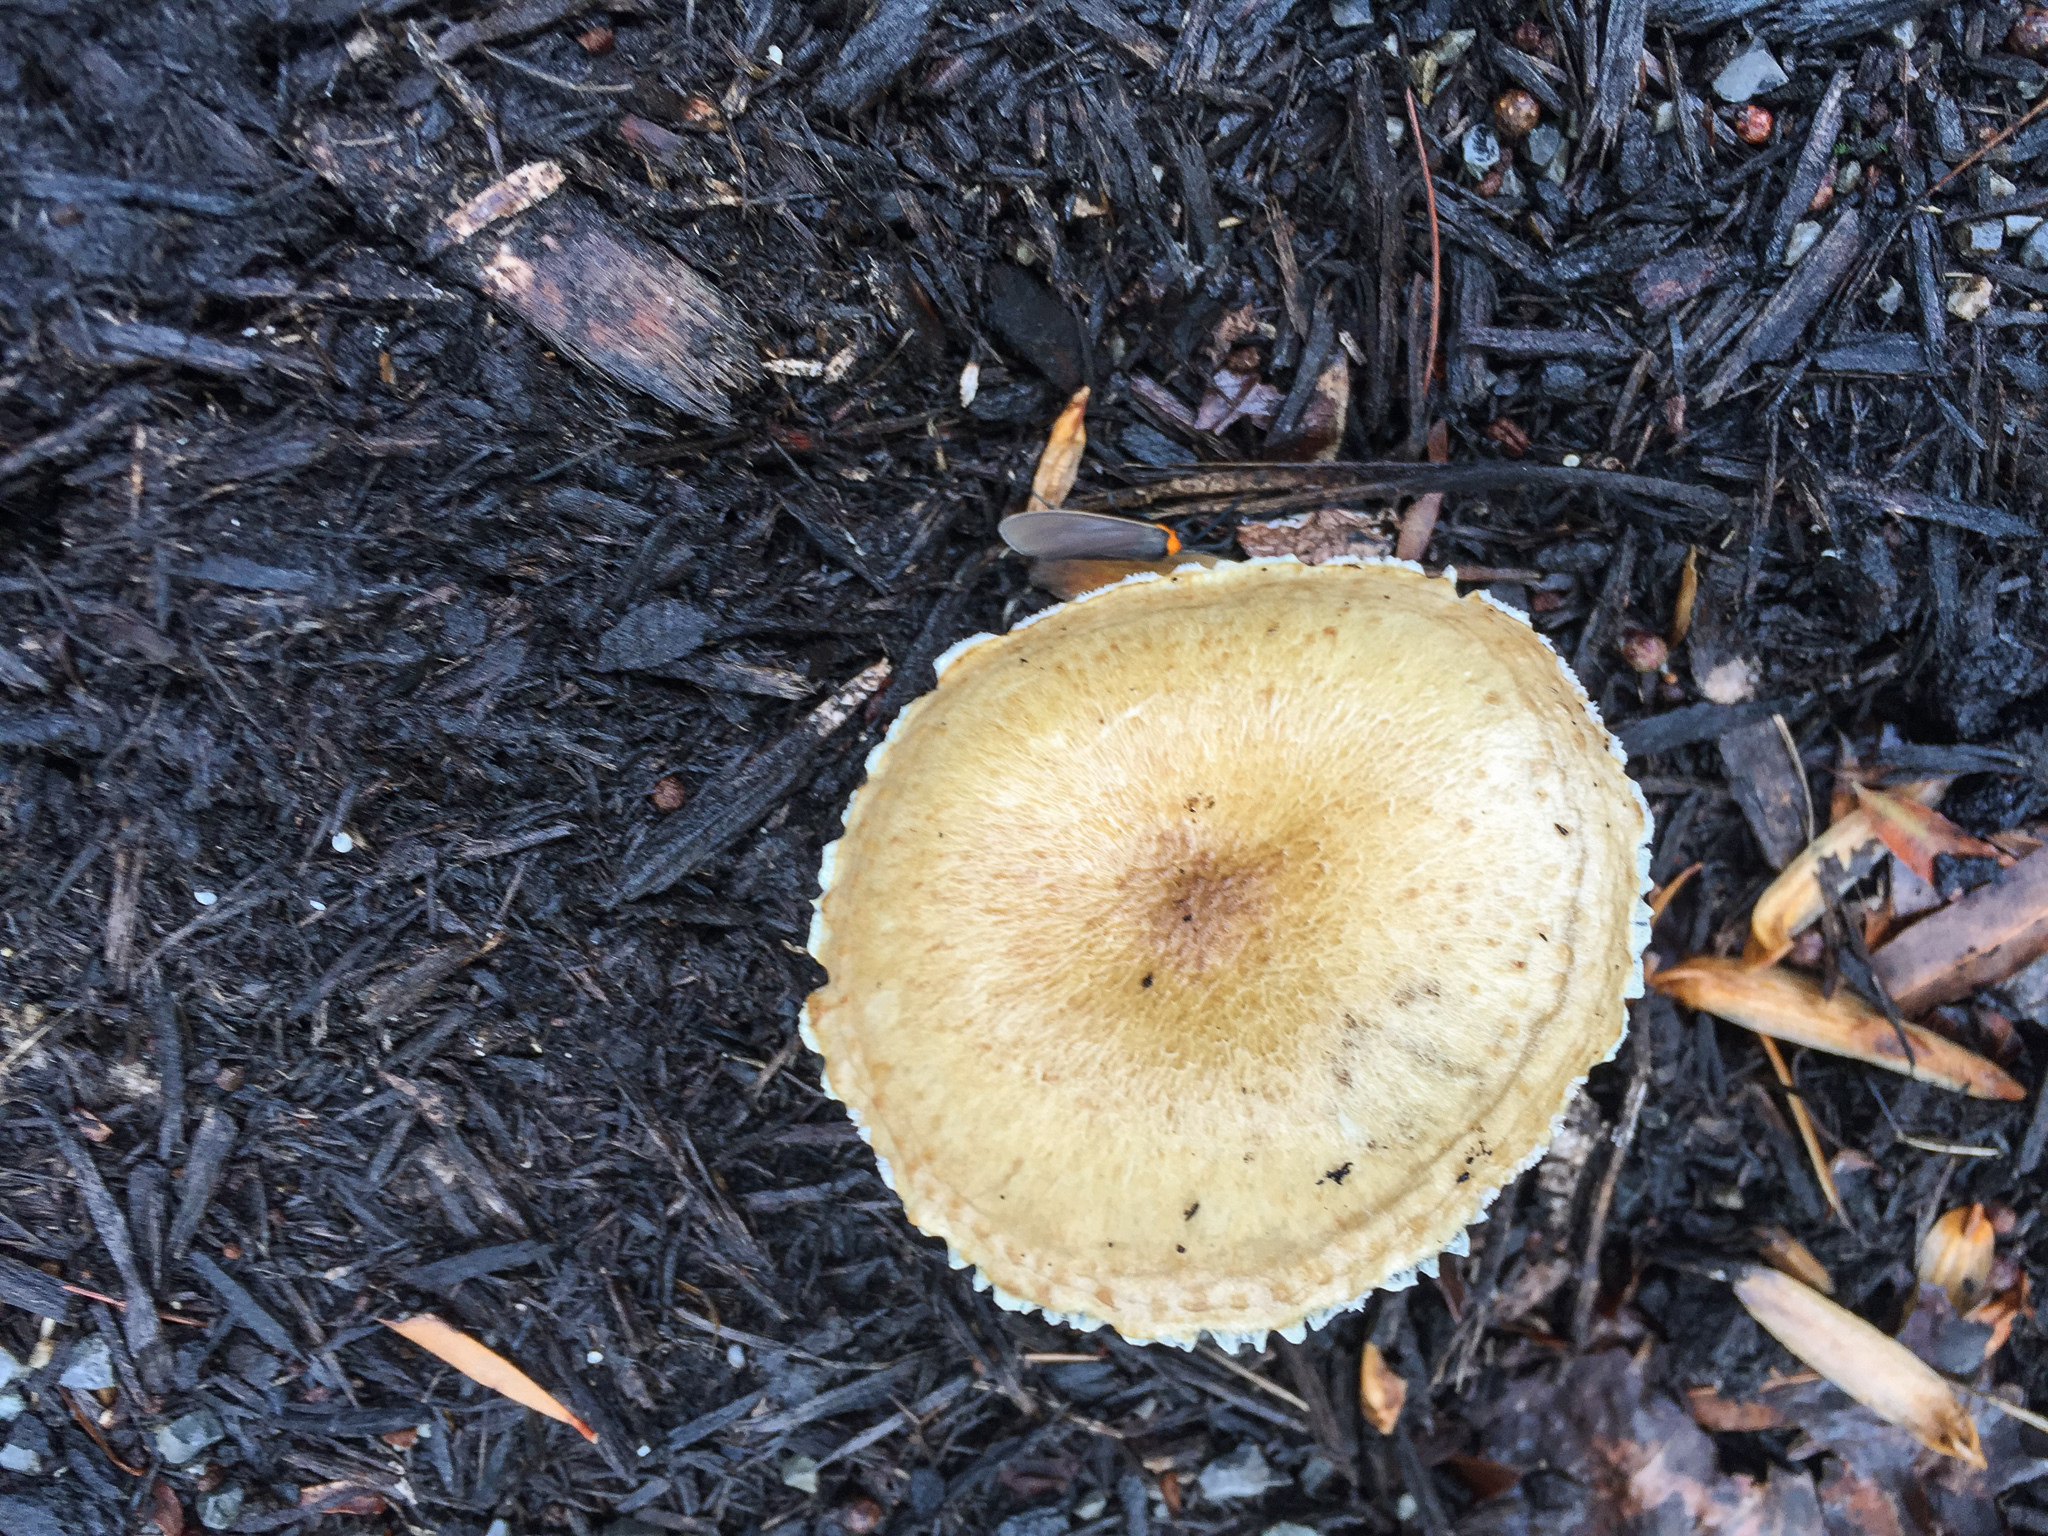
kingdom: Fungi
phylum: Basidiomycota
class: Agaricomycetes
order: Agaricales
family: Strophariaceae
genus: Stropharia
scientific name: Stropharia hardii
